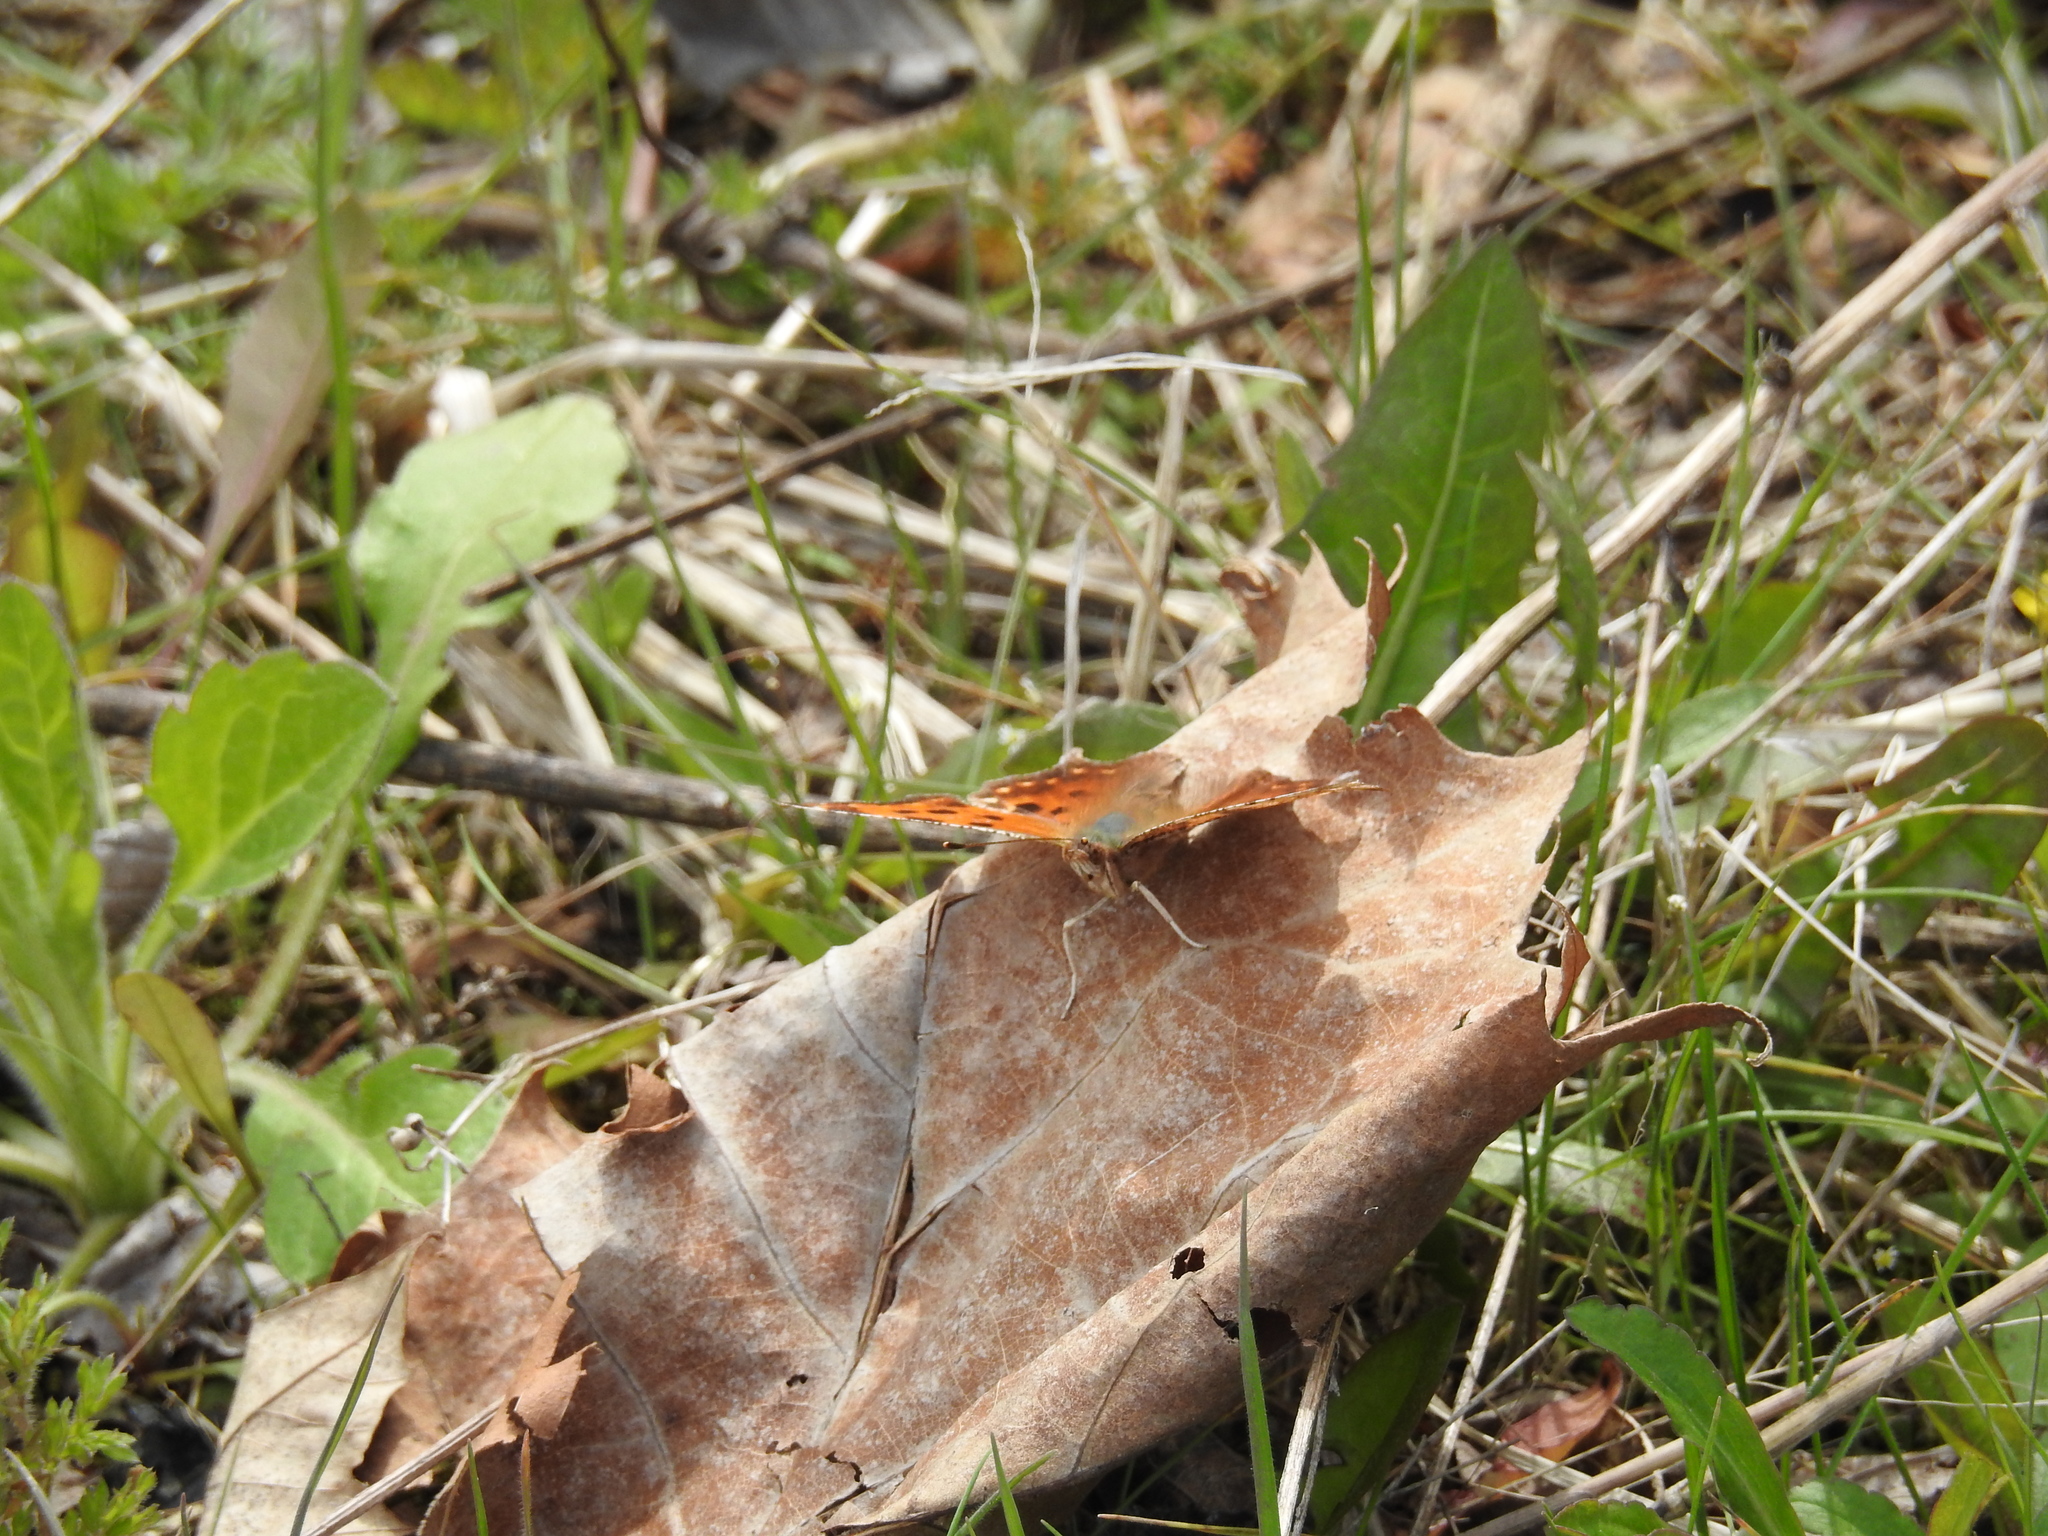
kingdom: Animalia
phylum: Arthropoda
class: Insecta
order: Lepidoptera
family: Nymphalidae
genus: Polygonia
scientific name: Polygonia comma
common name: Eastern comma
